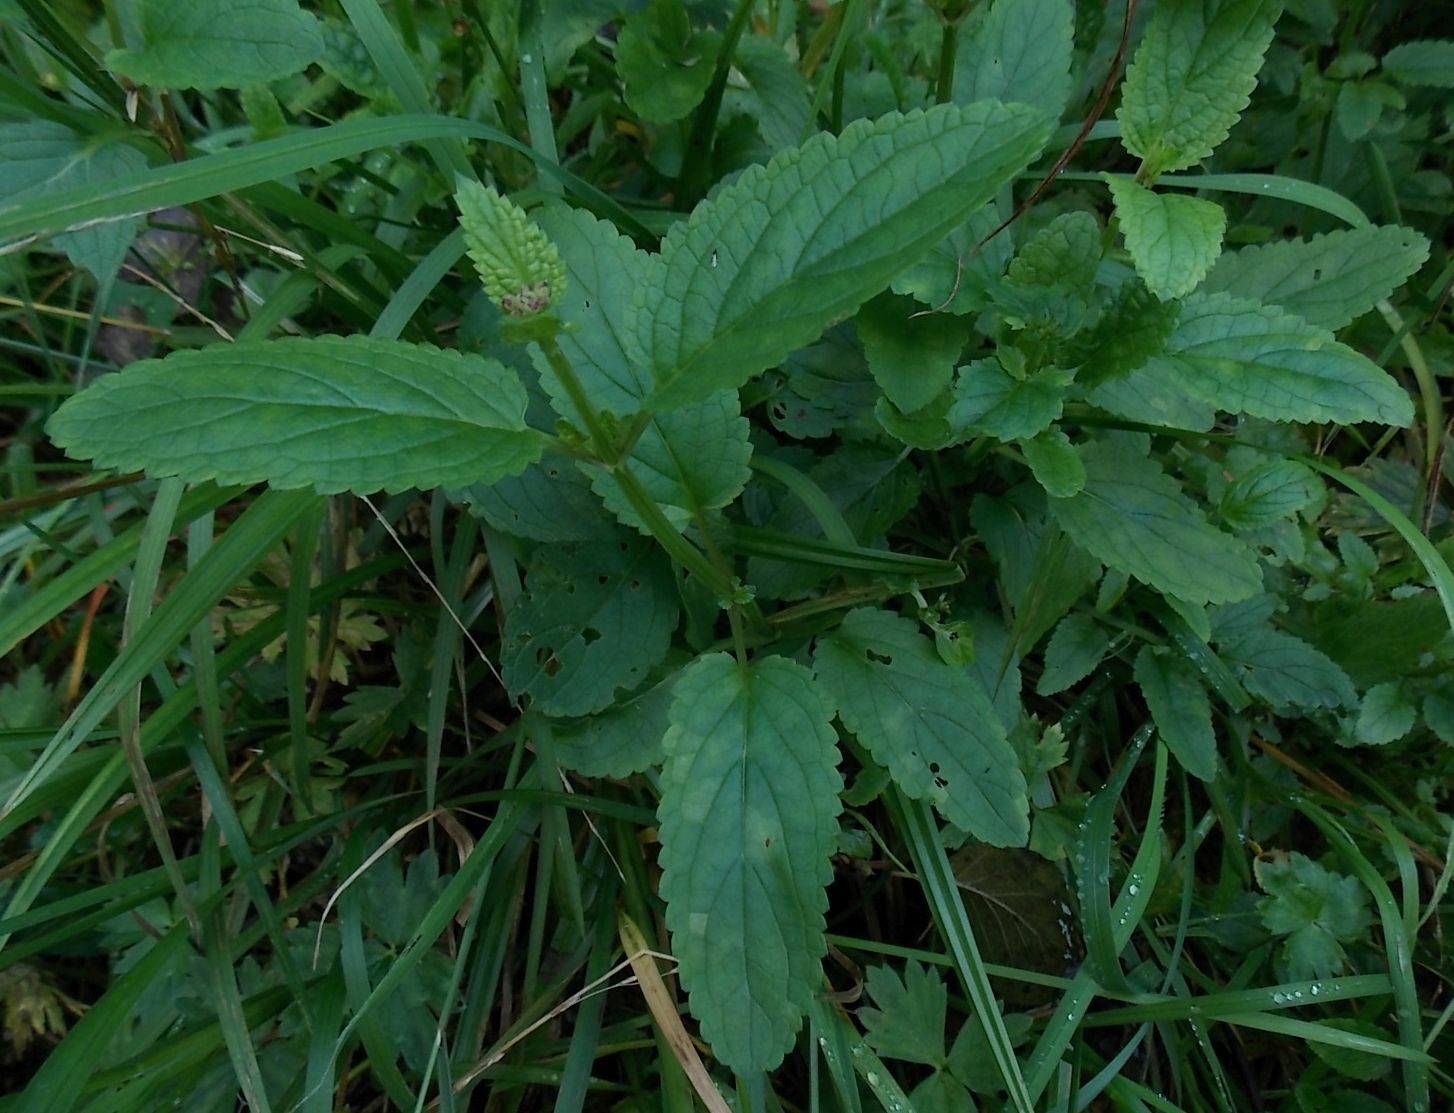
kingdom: Plantae
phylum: Tracheophyta
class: Magnoliopsida
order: Lamiales
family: Scrophulariaceae
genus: Scrophularia
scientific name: Scrophularia auriculata
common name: Water betony
